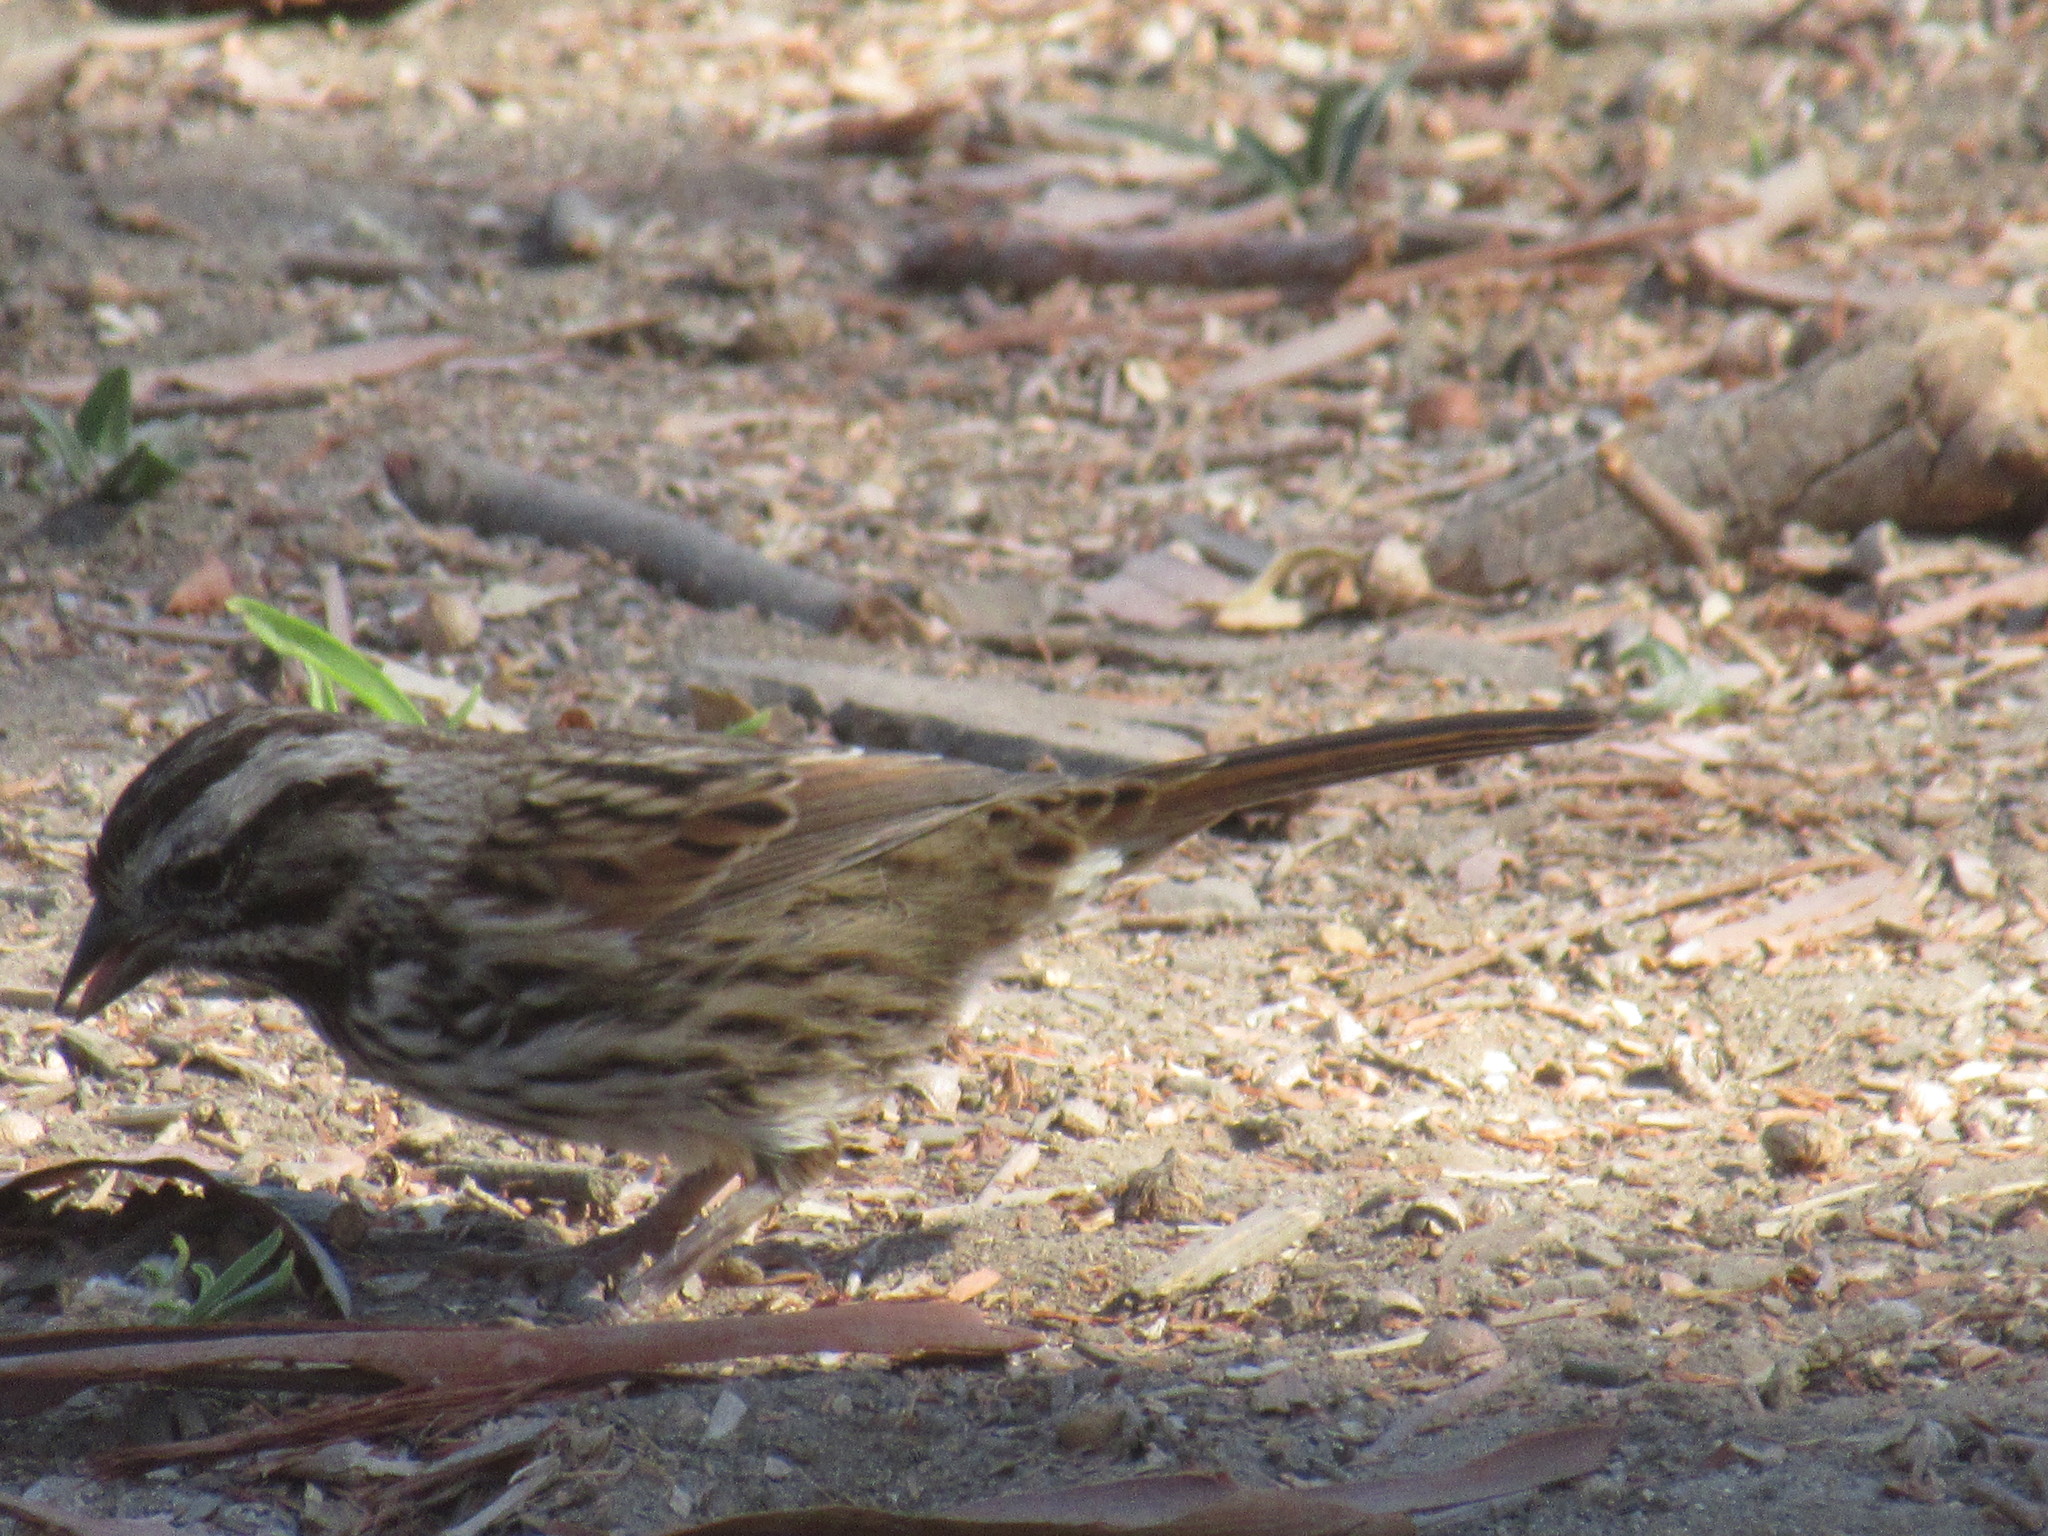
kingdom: Animalia
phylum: Chordata
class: Aves
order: Passeriformes
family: Passerellidae
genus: Melospiza
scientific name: Melospiza melodia
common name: Song sparrow
